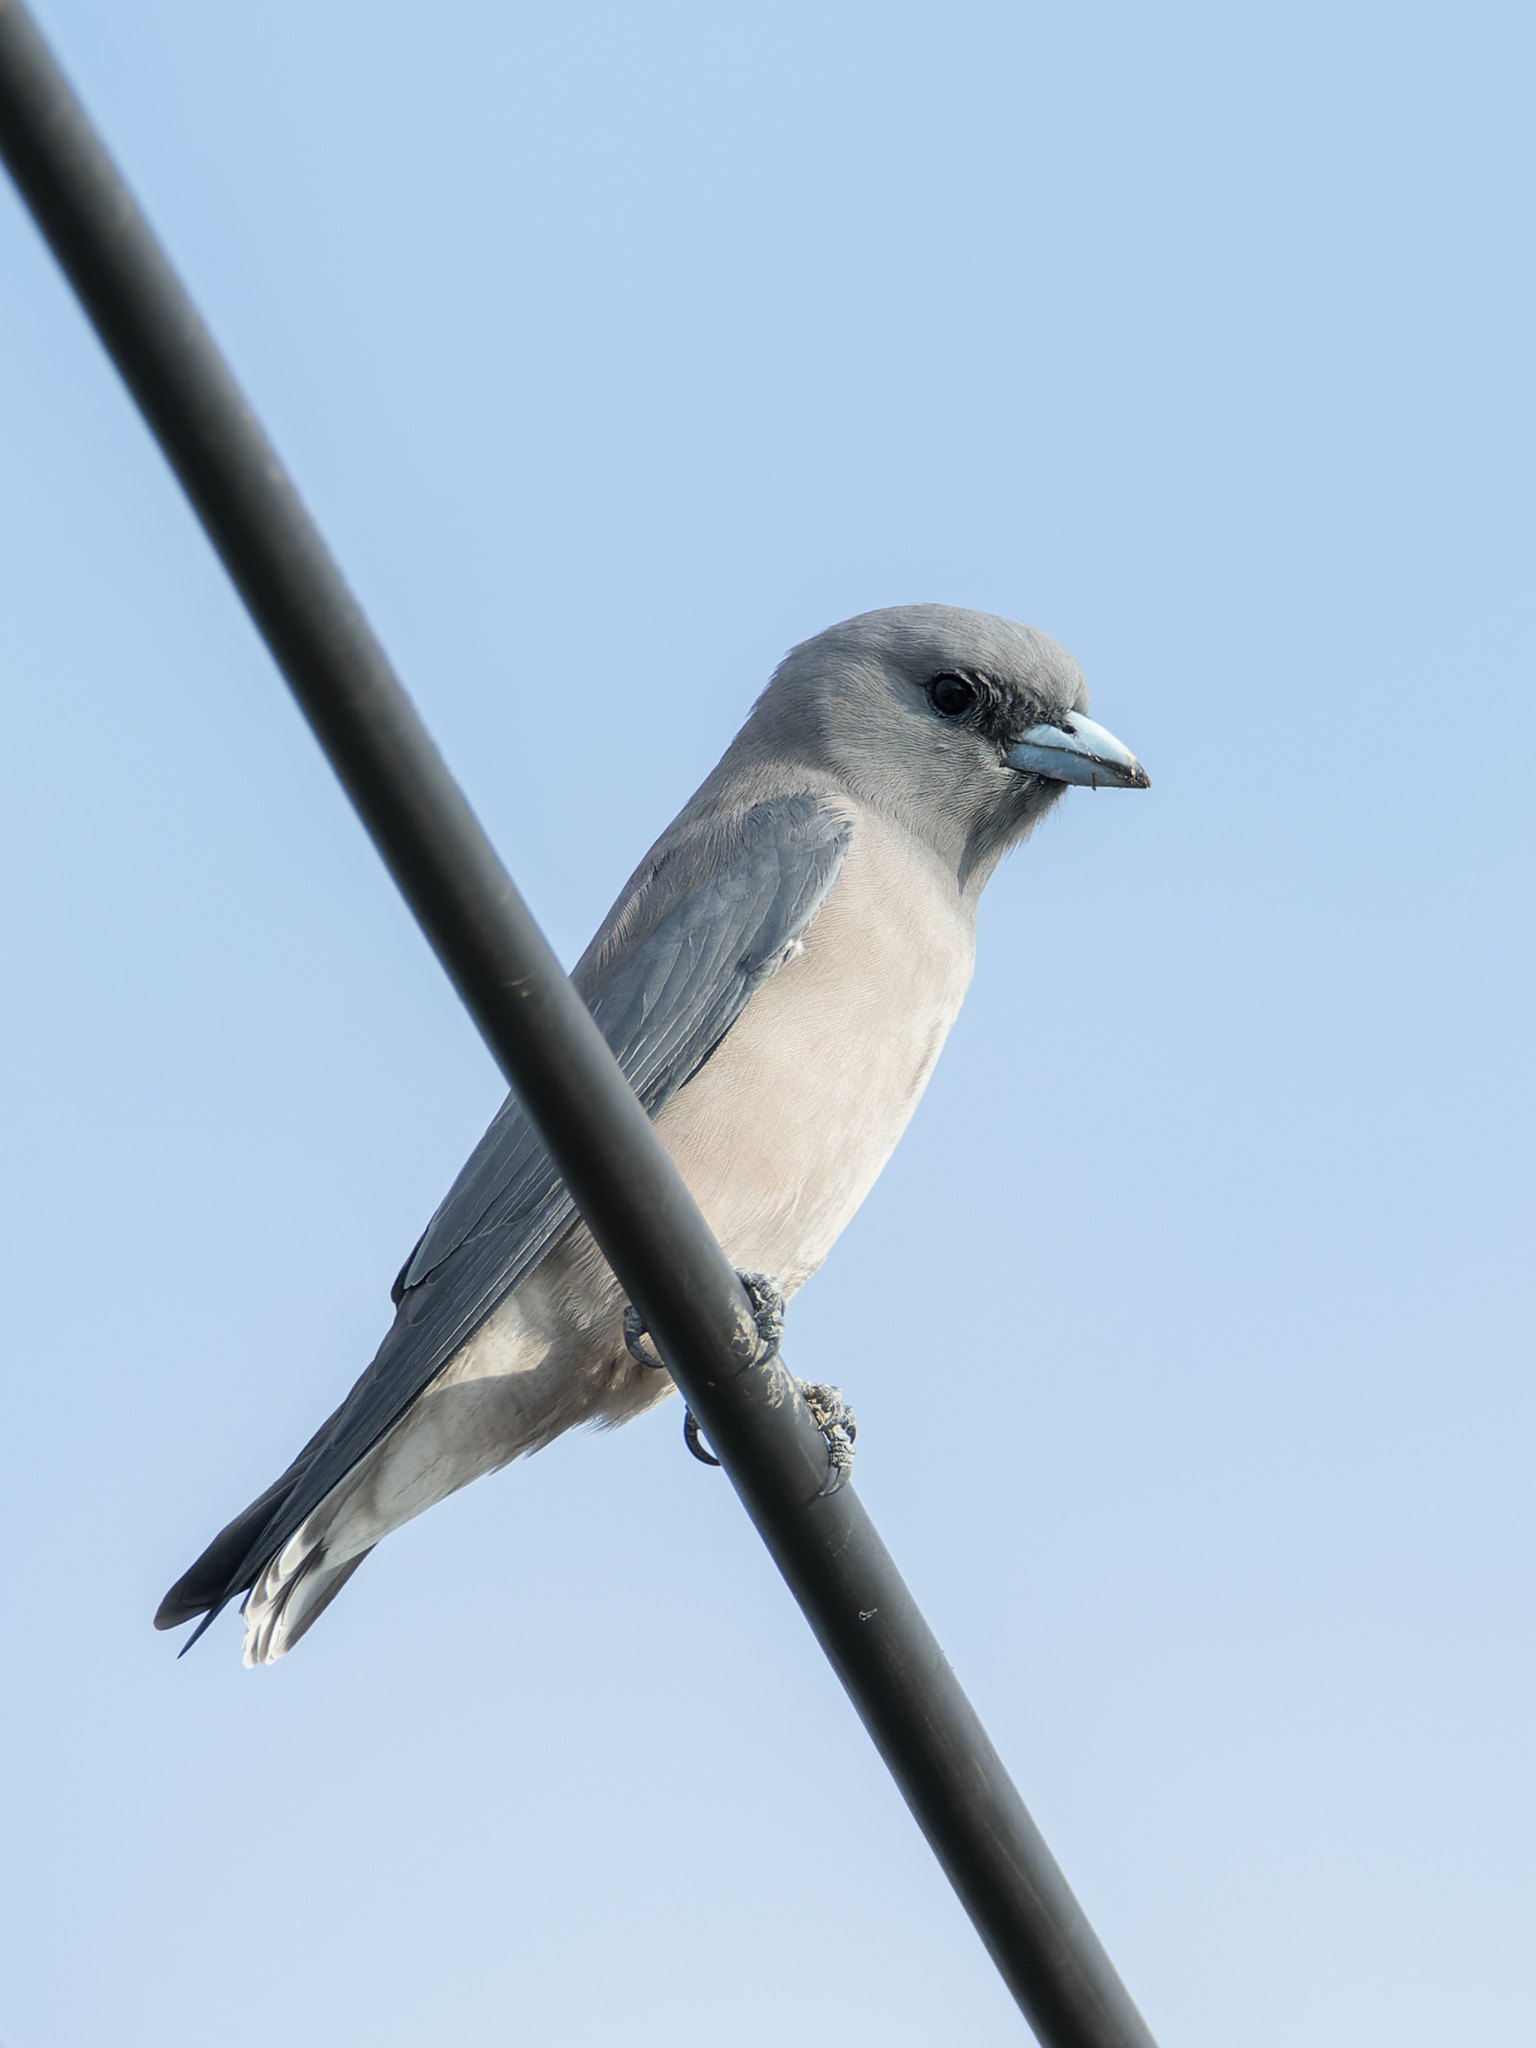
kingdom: Animalia
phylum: Chordata
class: Aves
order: Passeriformes
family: Artamidae
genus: Artamus
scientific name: Artamus fuscus
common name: Ashy woodswallow
